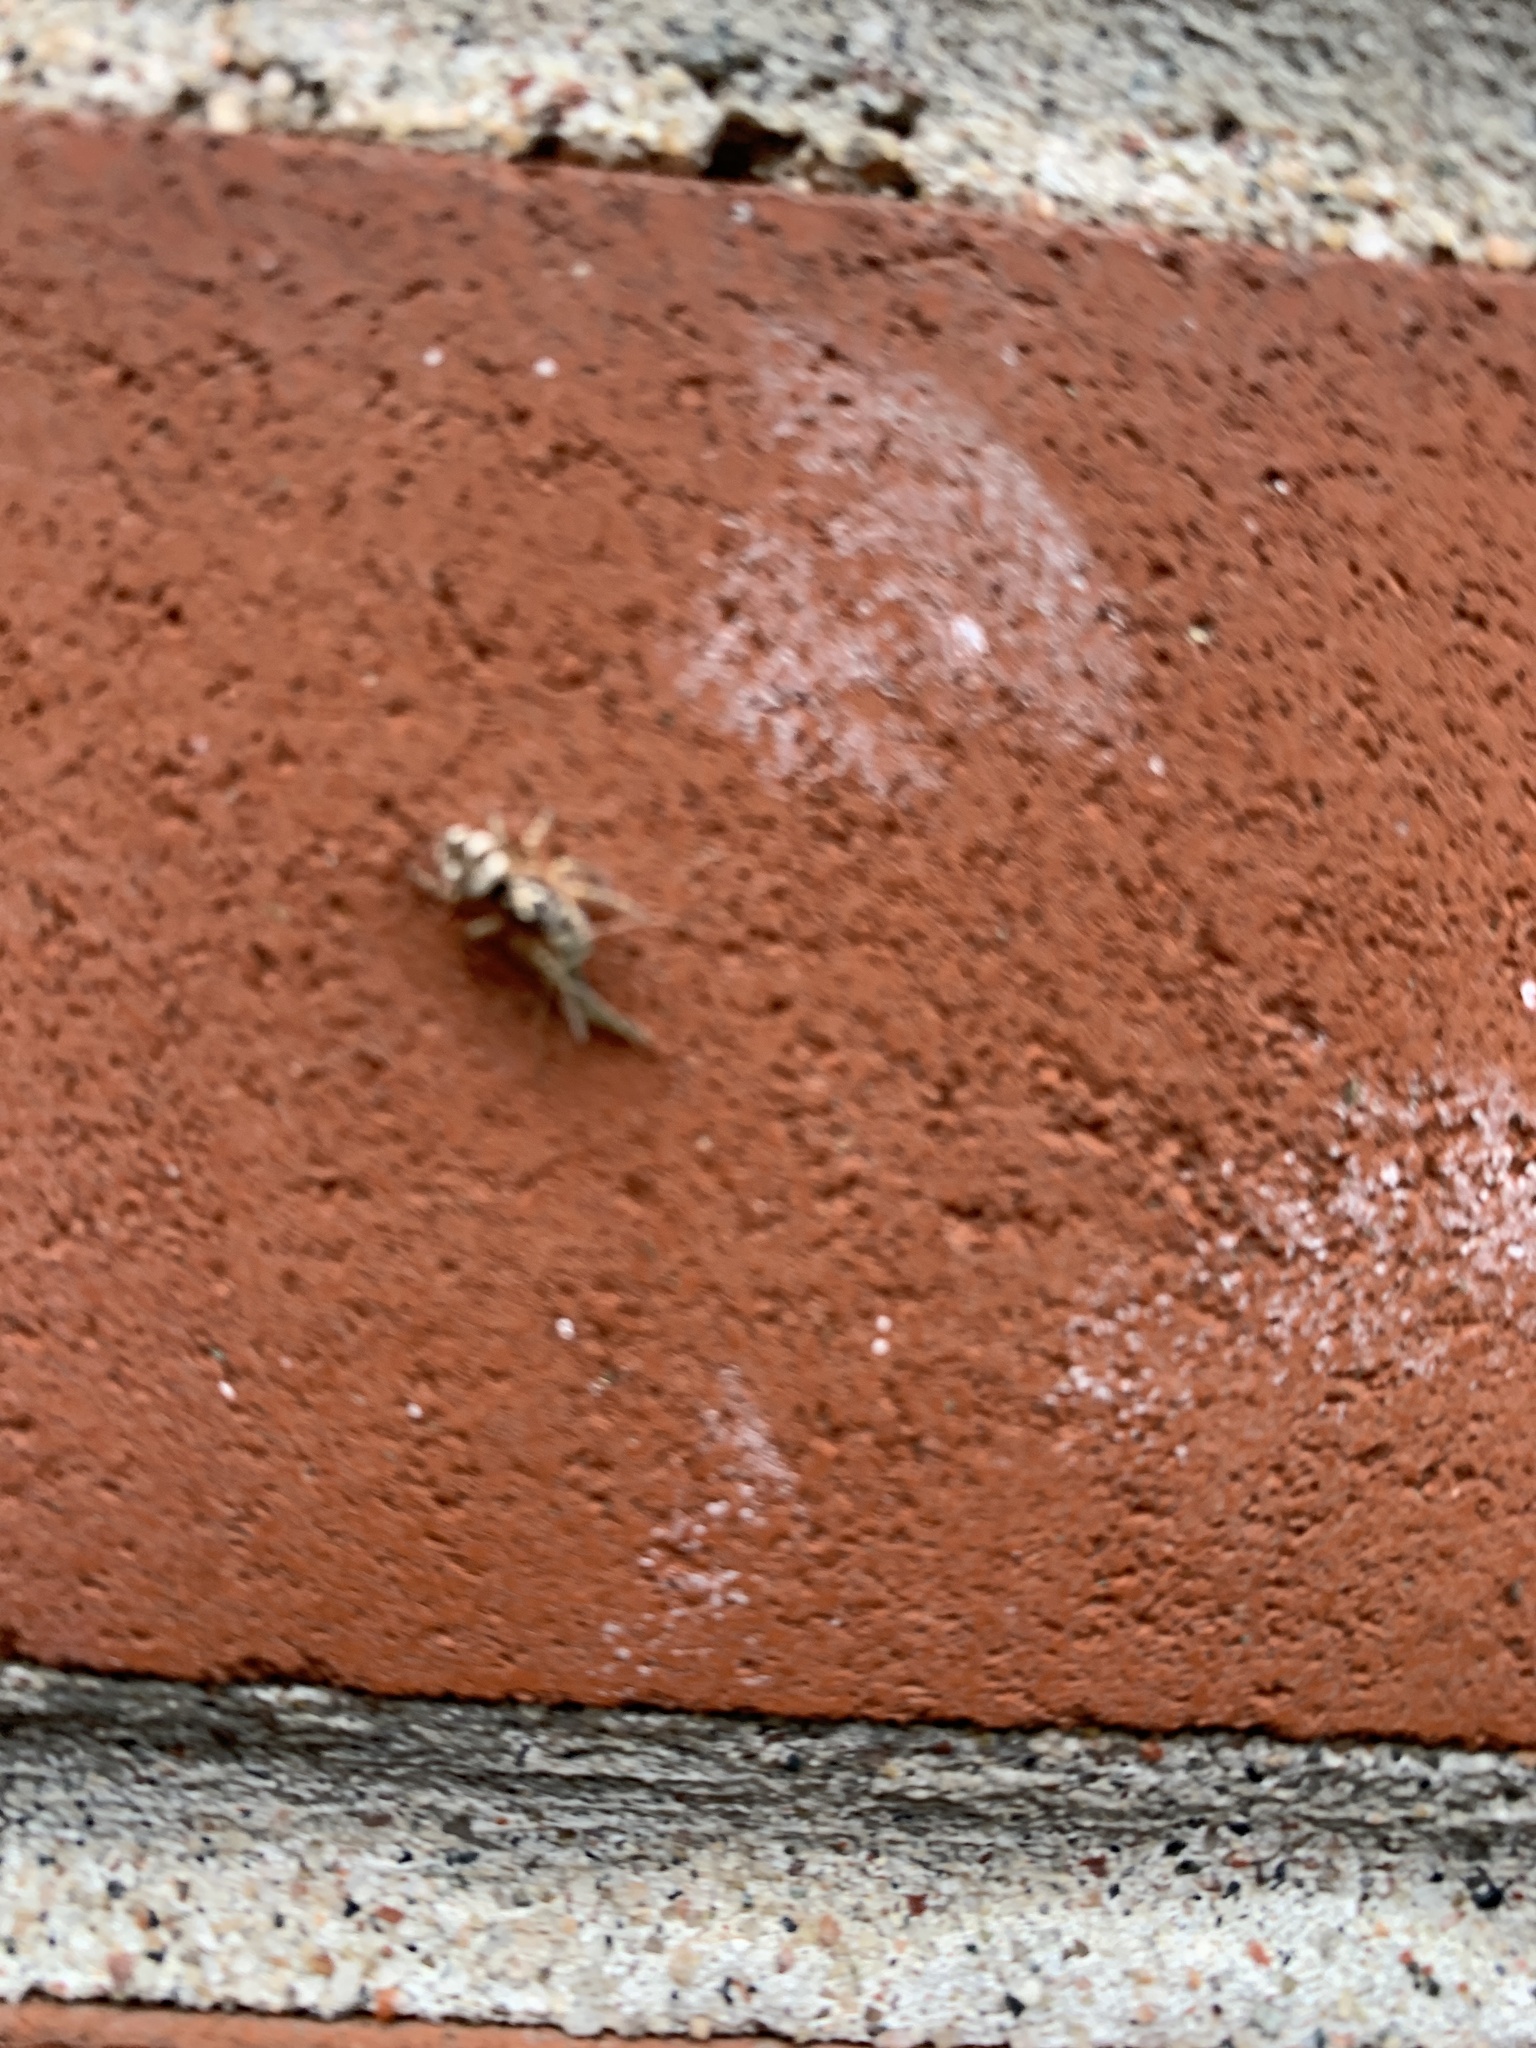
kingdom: Animalia
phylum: Arthropoda
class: Arachnida
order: Araneae
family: Salticidae
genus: Salticus
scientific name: Salticus scenicus
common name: Zebra jumper
